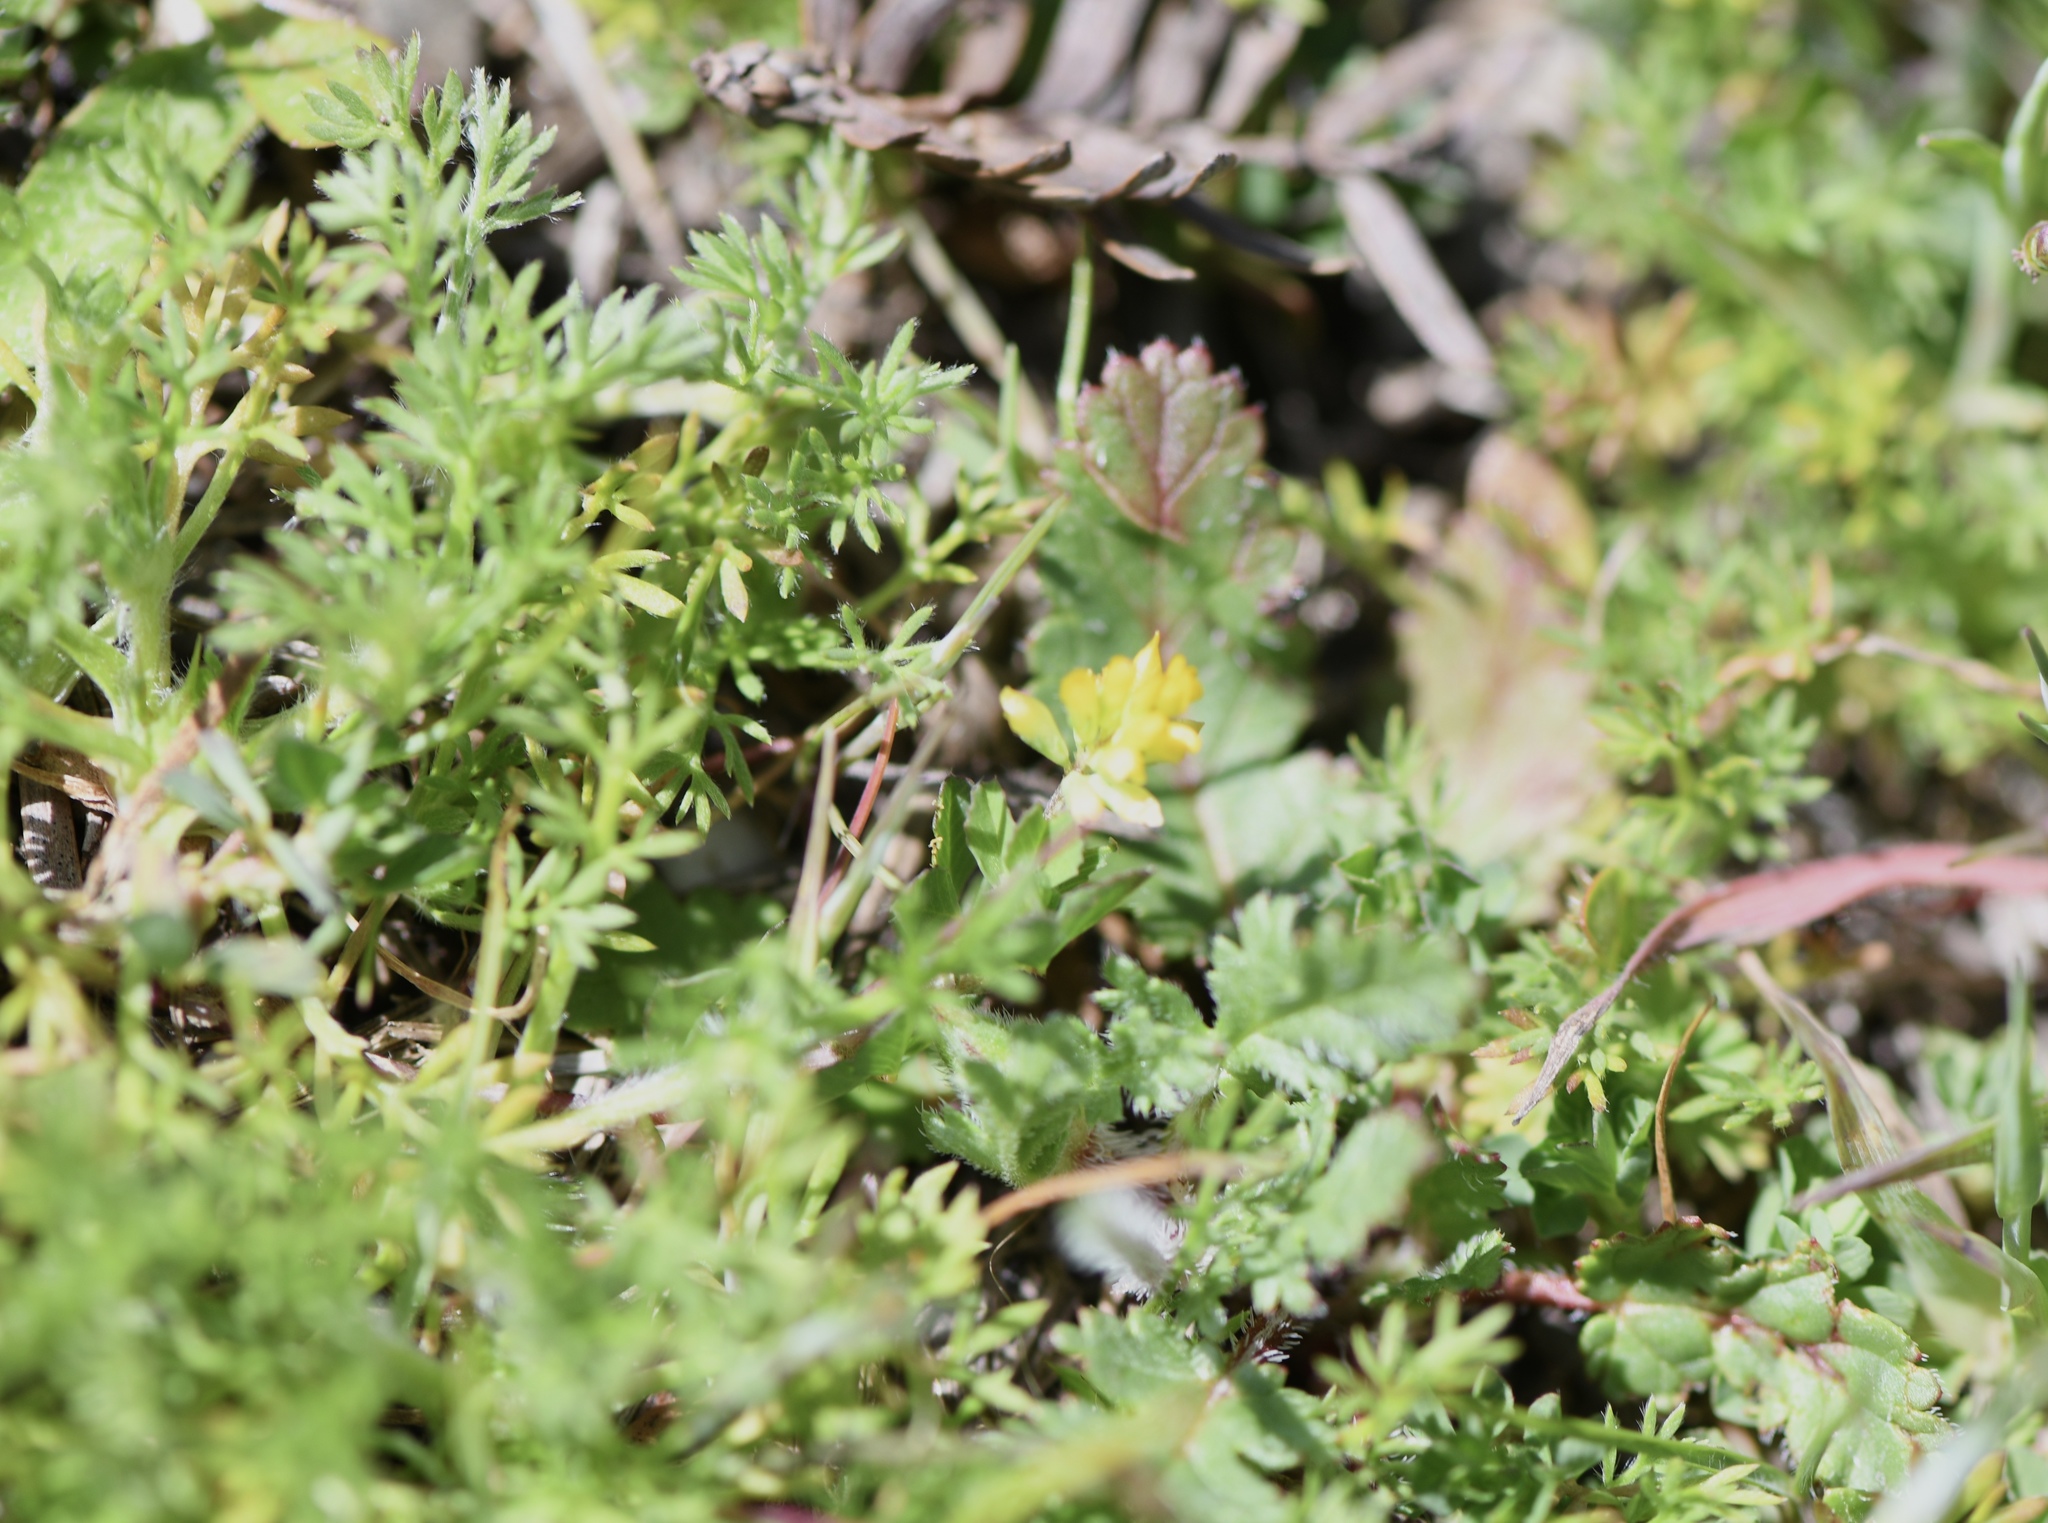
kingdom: Plantae
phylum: Tracheophyta
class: Magnoliopsida
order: Fabales
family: Fabaceae
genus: Trifolium
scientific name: Trifolium dubium
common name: Suckling clover
